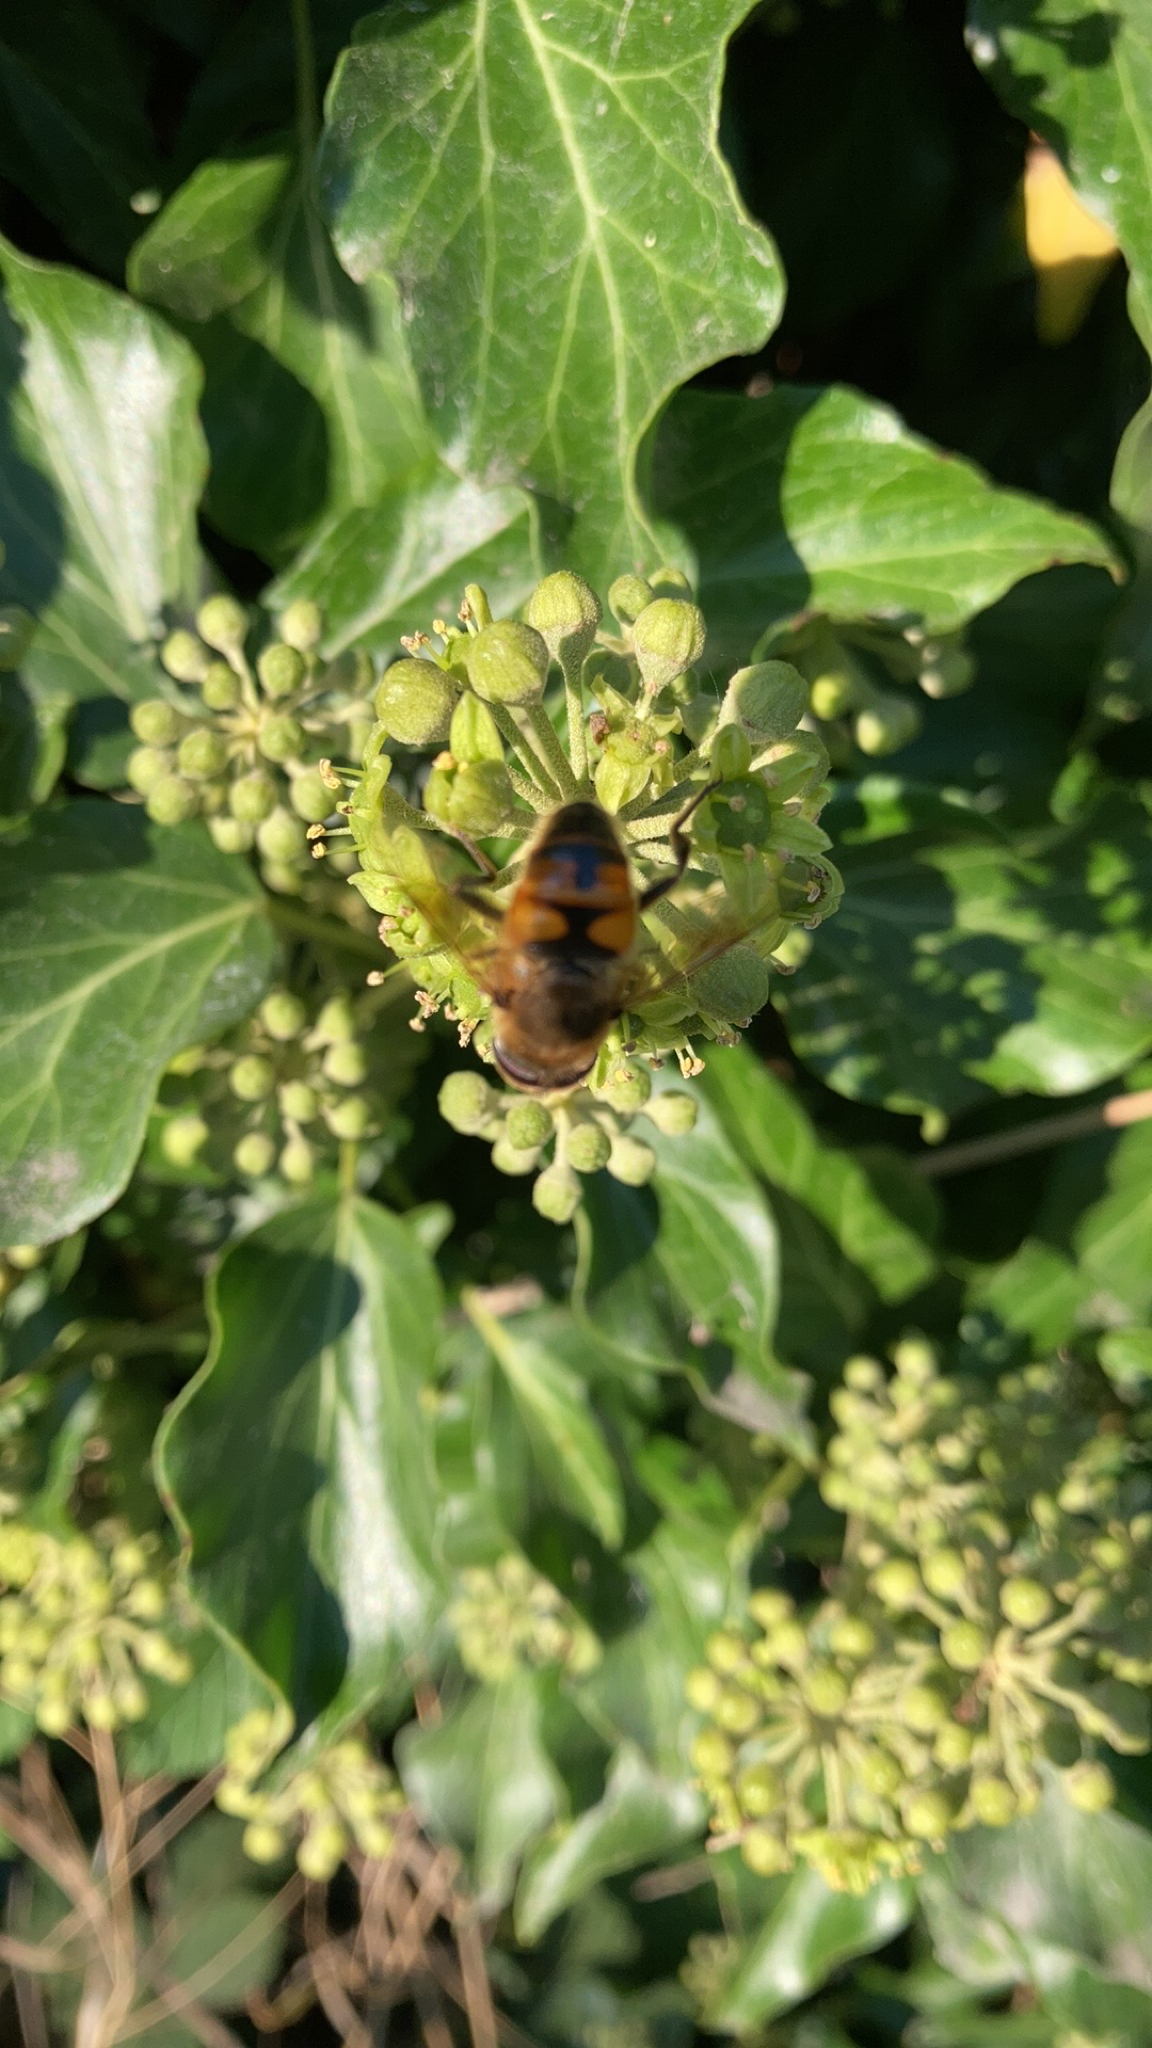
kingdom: Animalia
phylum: Arthropoda
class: Insecta
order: Diptera
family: Syrphidae
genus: Eristalis
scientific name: Eristalis tenax
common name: Drone fly
